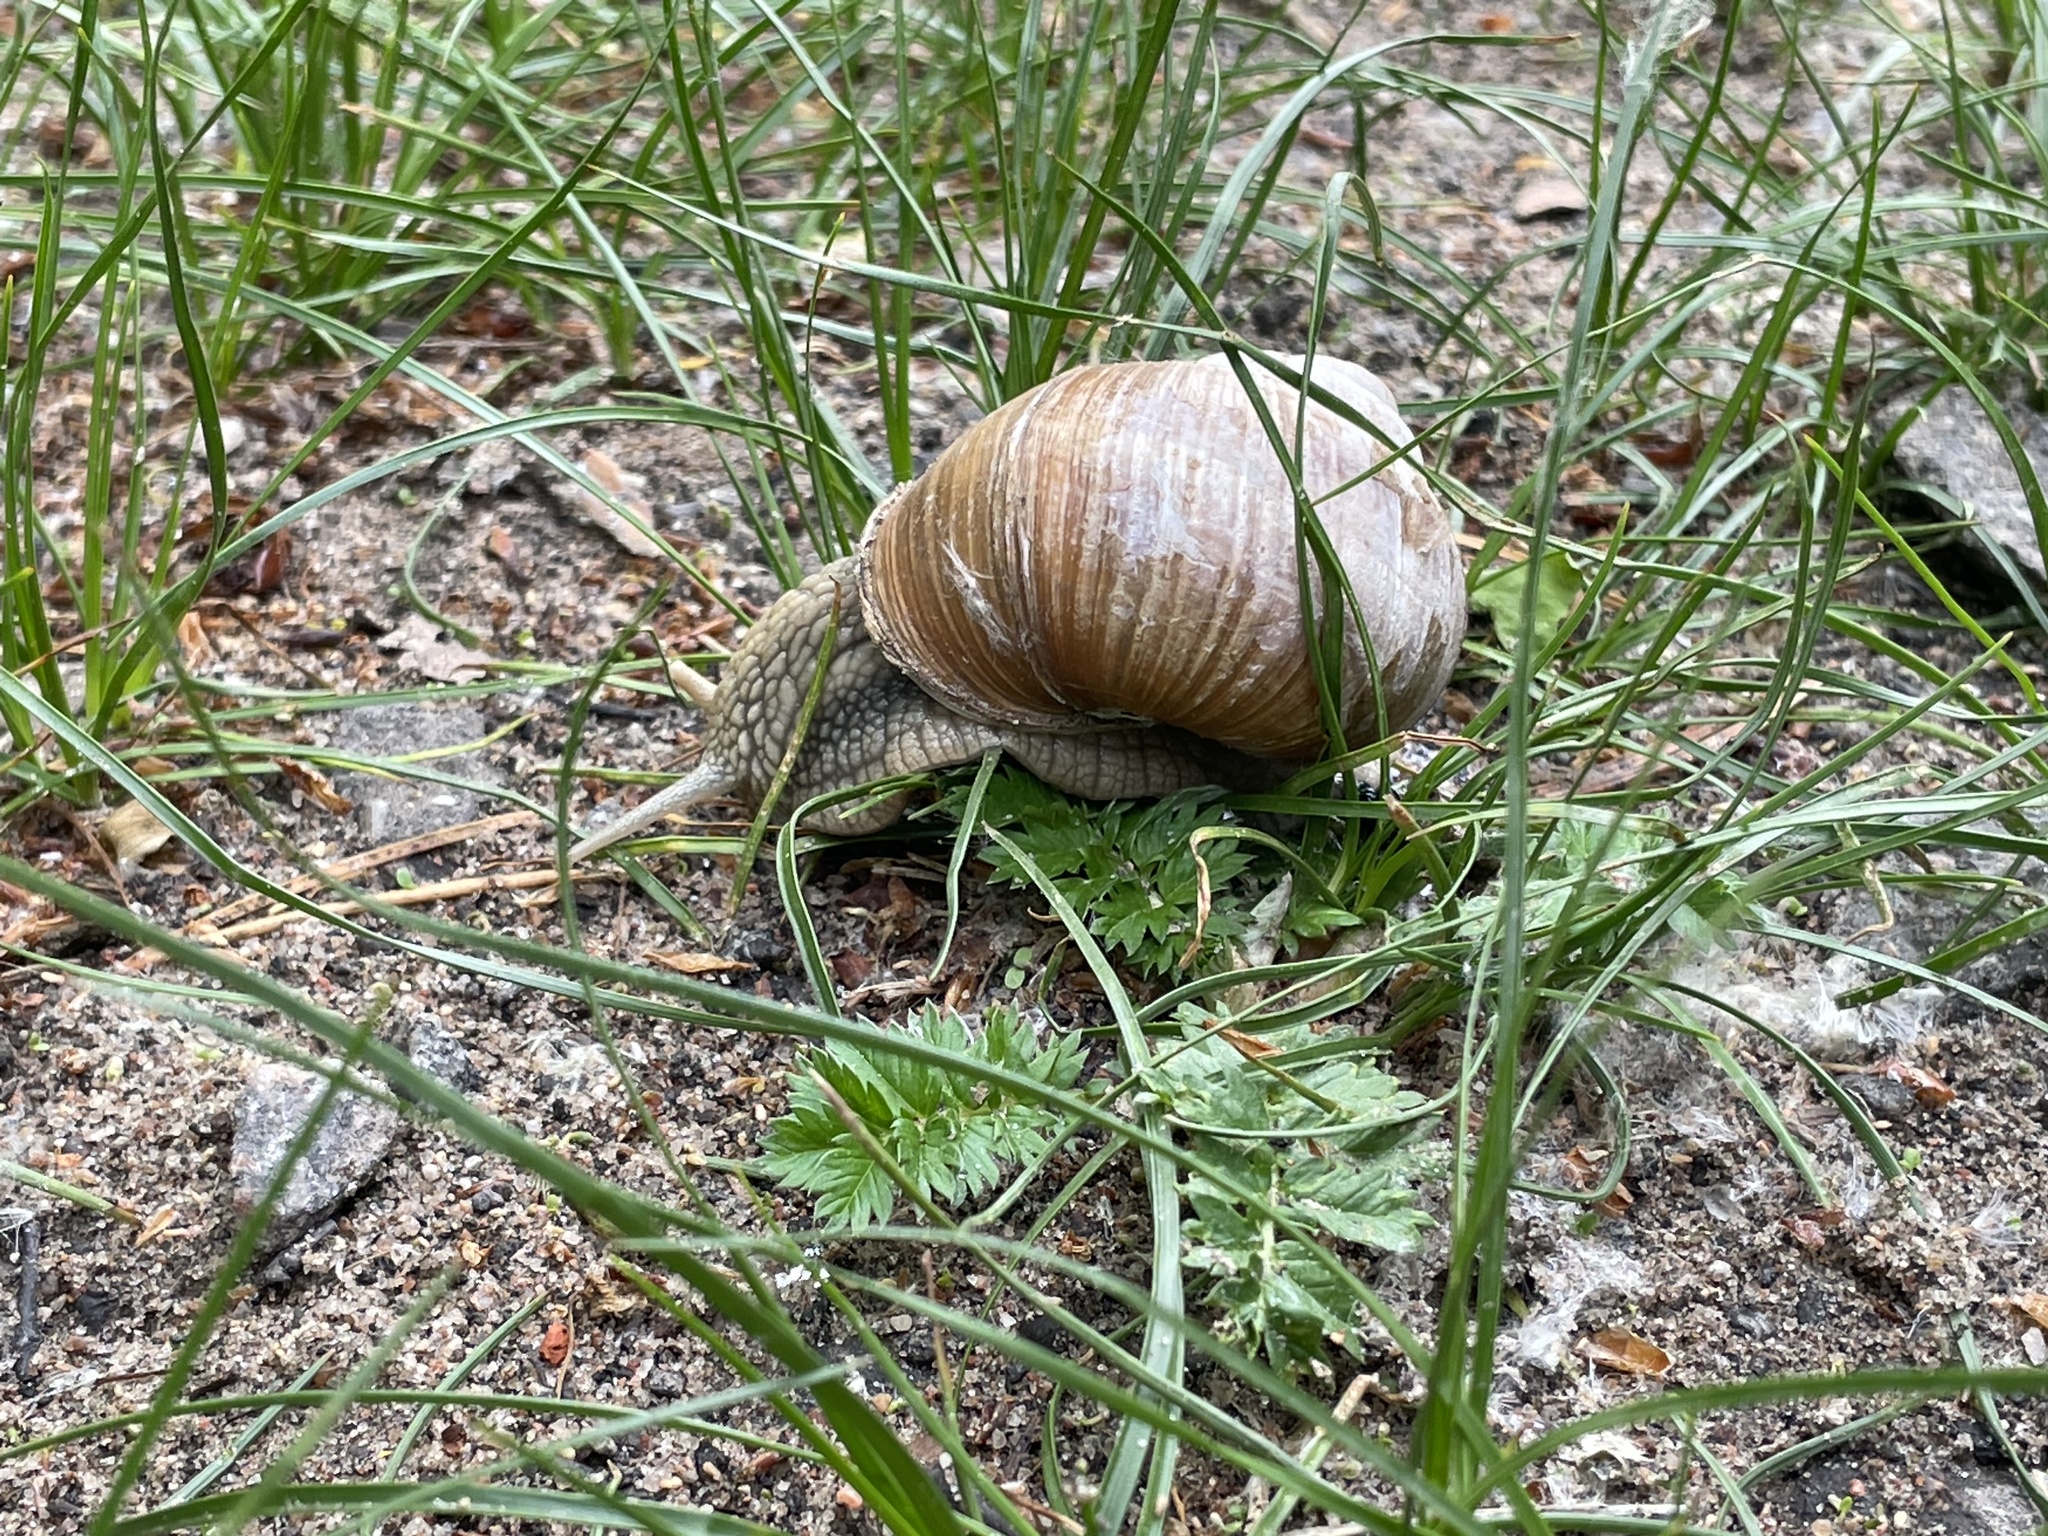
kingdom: Animalia
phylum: Mollusca
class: Gastropoda
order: Stylommatophora
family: Helicidae
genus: Helix
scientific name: Helix pomatia
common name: Roman snail
